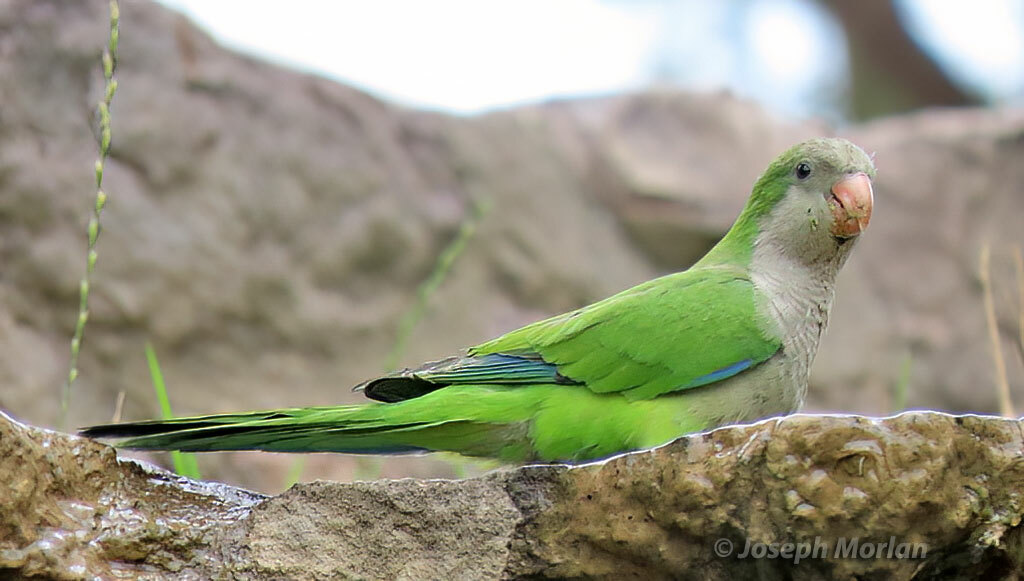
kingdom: Animalia
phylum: Chordata
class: Aves
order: Psittaciformes
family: Psittacidae
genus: Myiopsitta
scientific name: Myiopsitta monachus
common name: Monk parakeet
